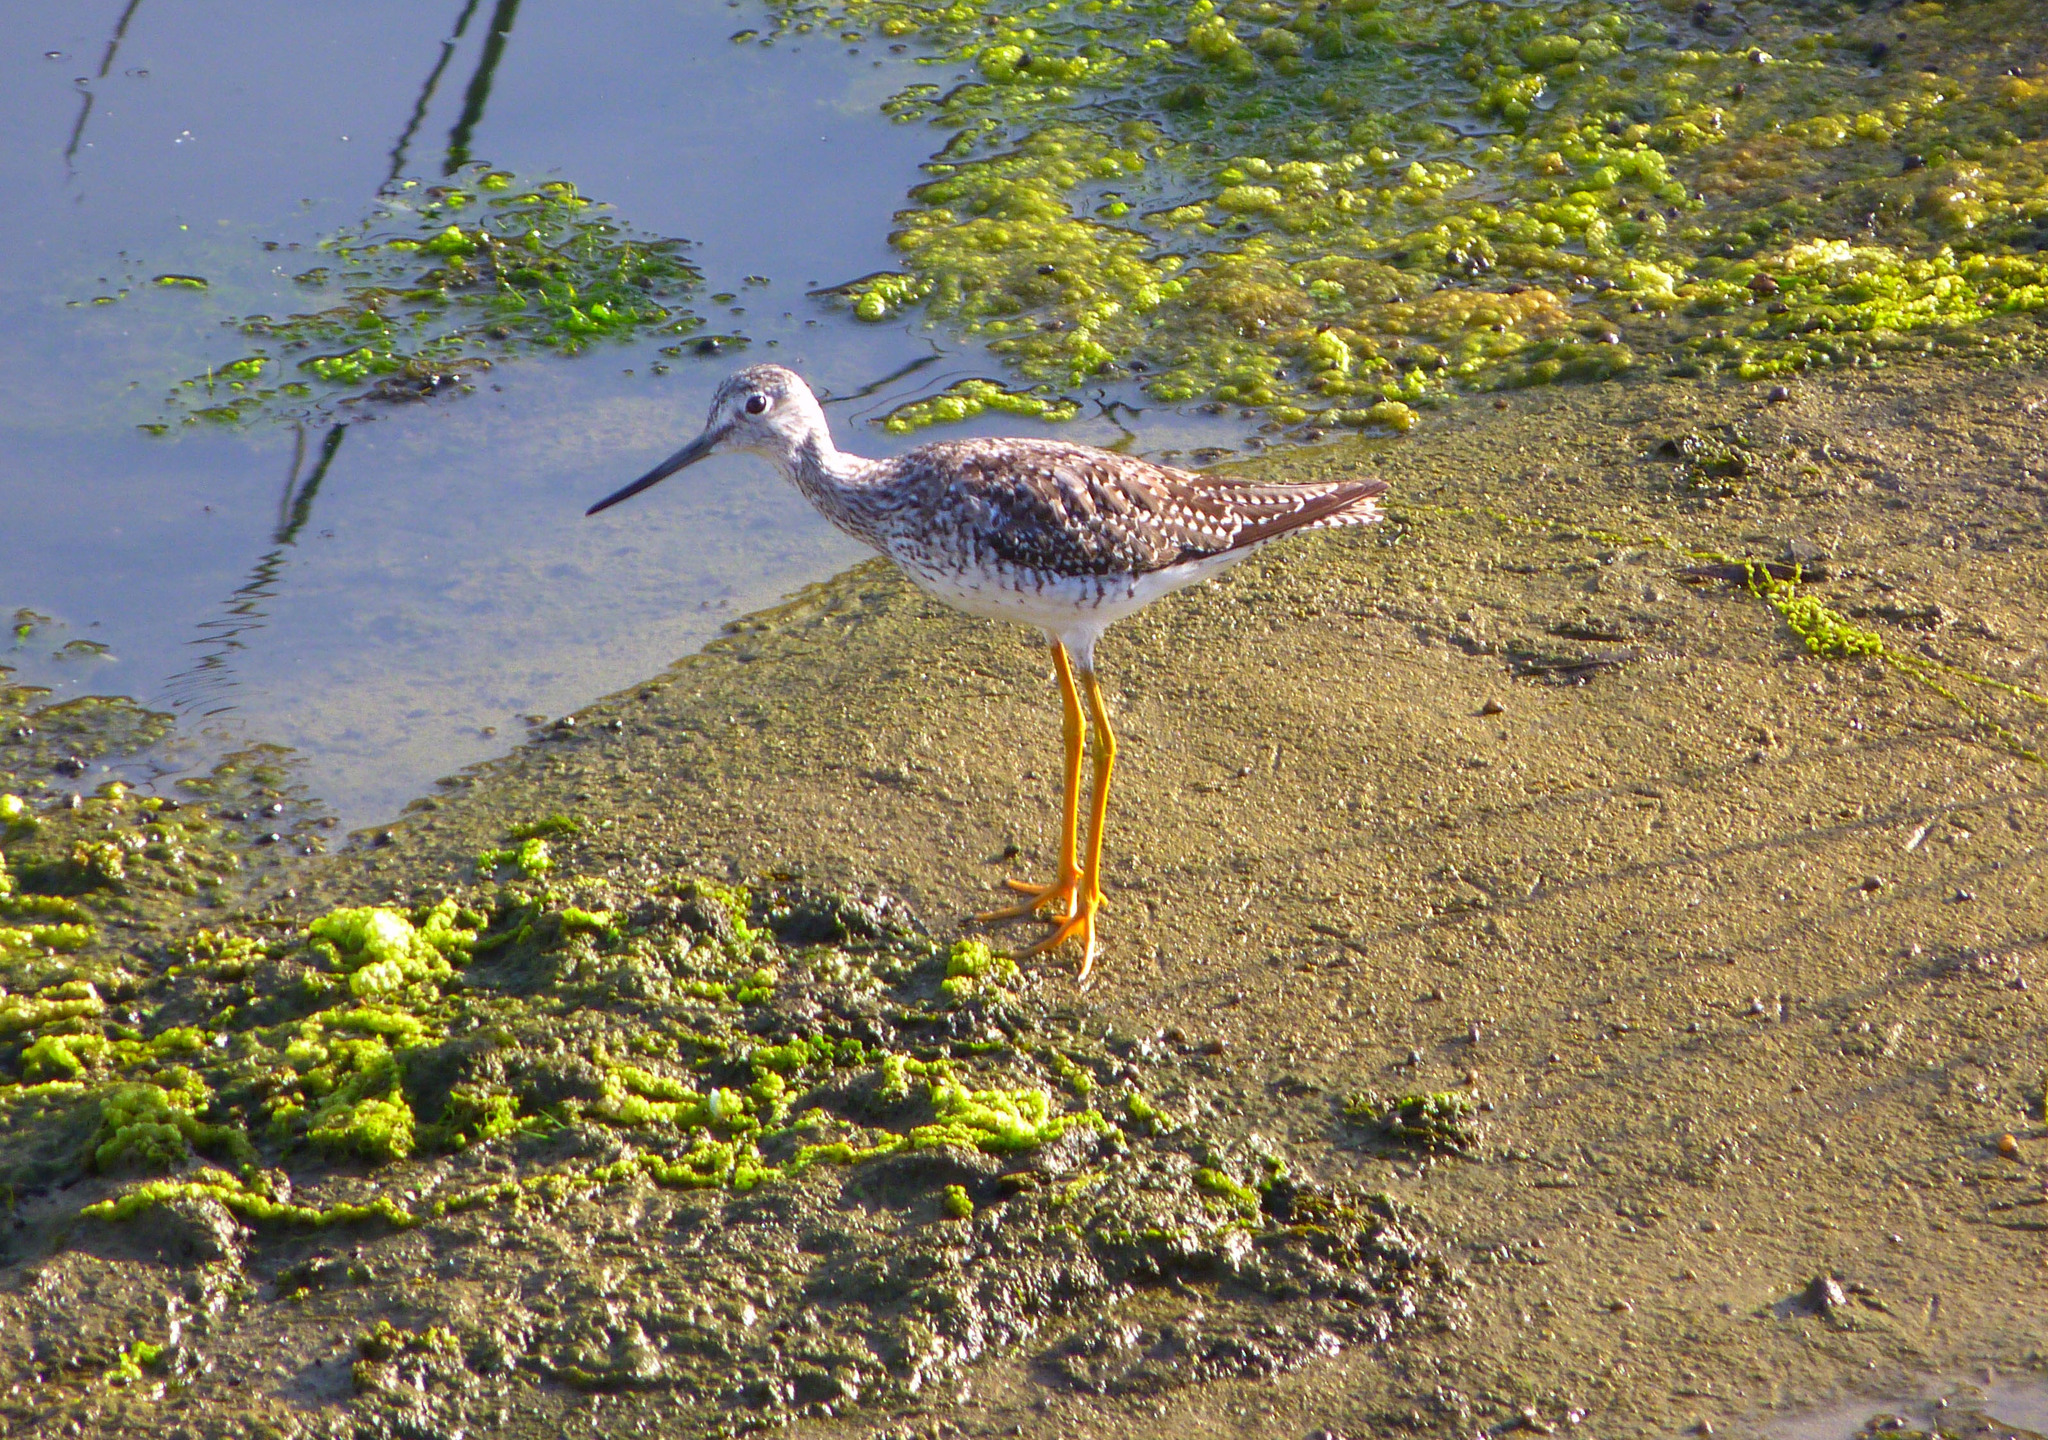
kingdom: Animalia
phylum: Chordata
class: Aves
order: Charadriiformes
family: Scolopacidae
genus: Tringa
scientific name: Tringa melanoleuca
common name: Greater yellowlegs
